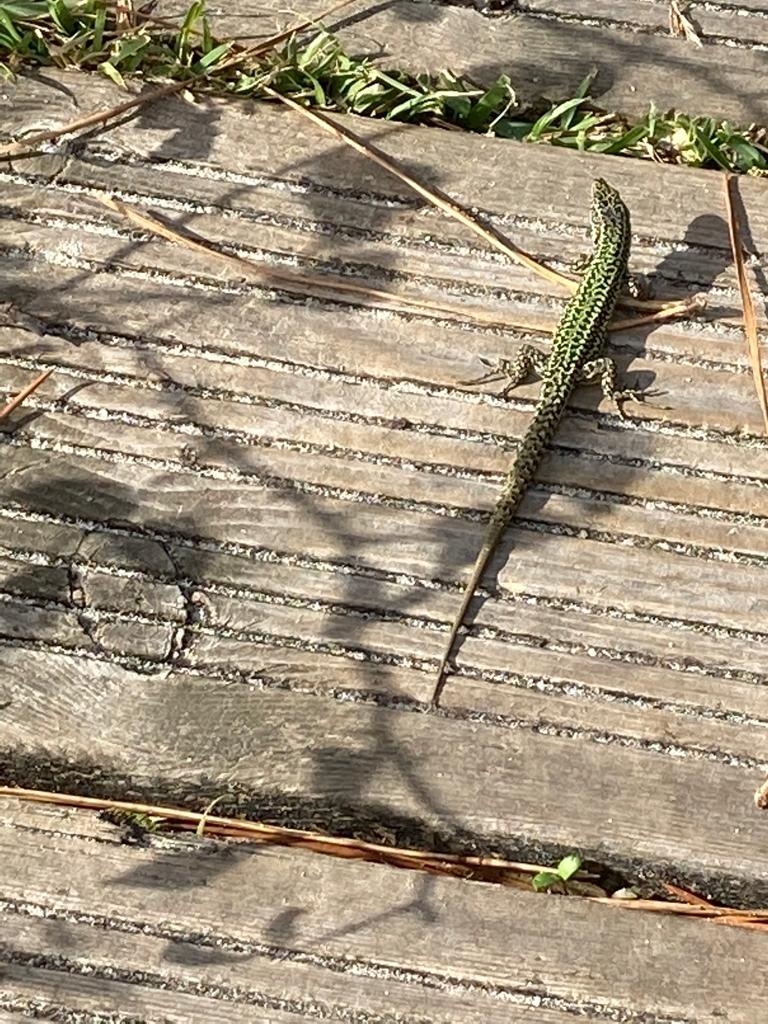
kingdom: Animalia
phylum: Chordata
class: Squamata
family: Lacertidae
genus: Podarcis
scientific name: Podarcis bocagei
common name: Bocage's wall lizard
